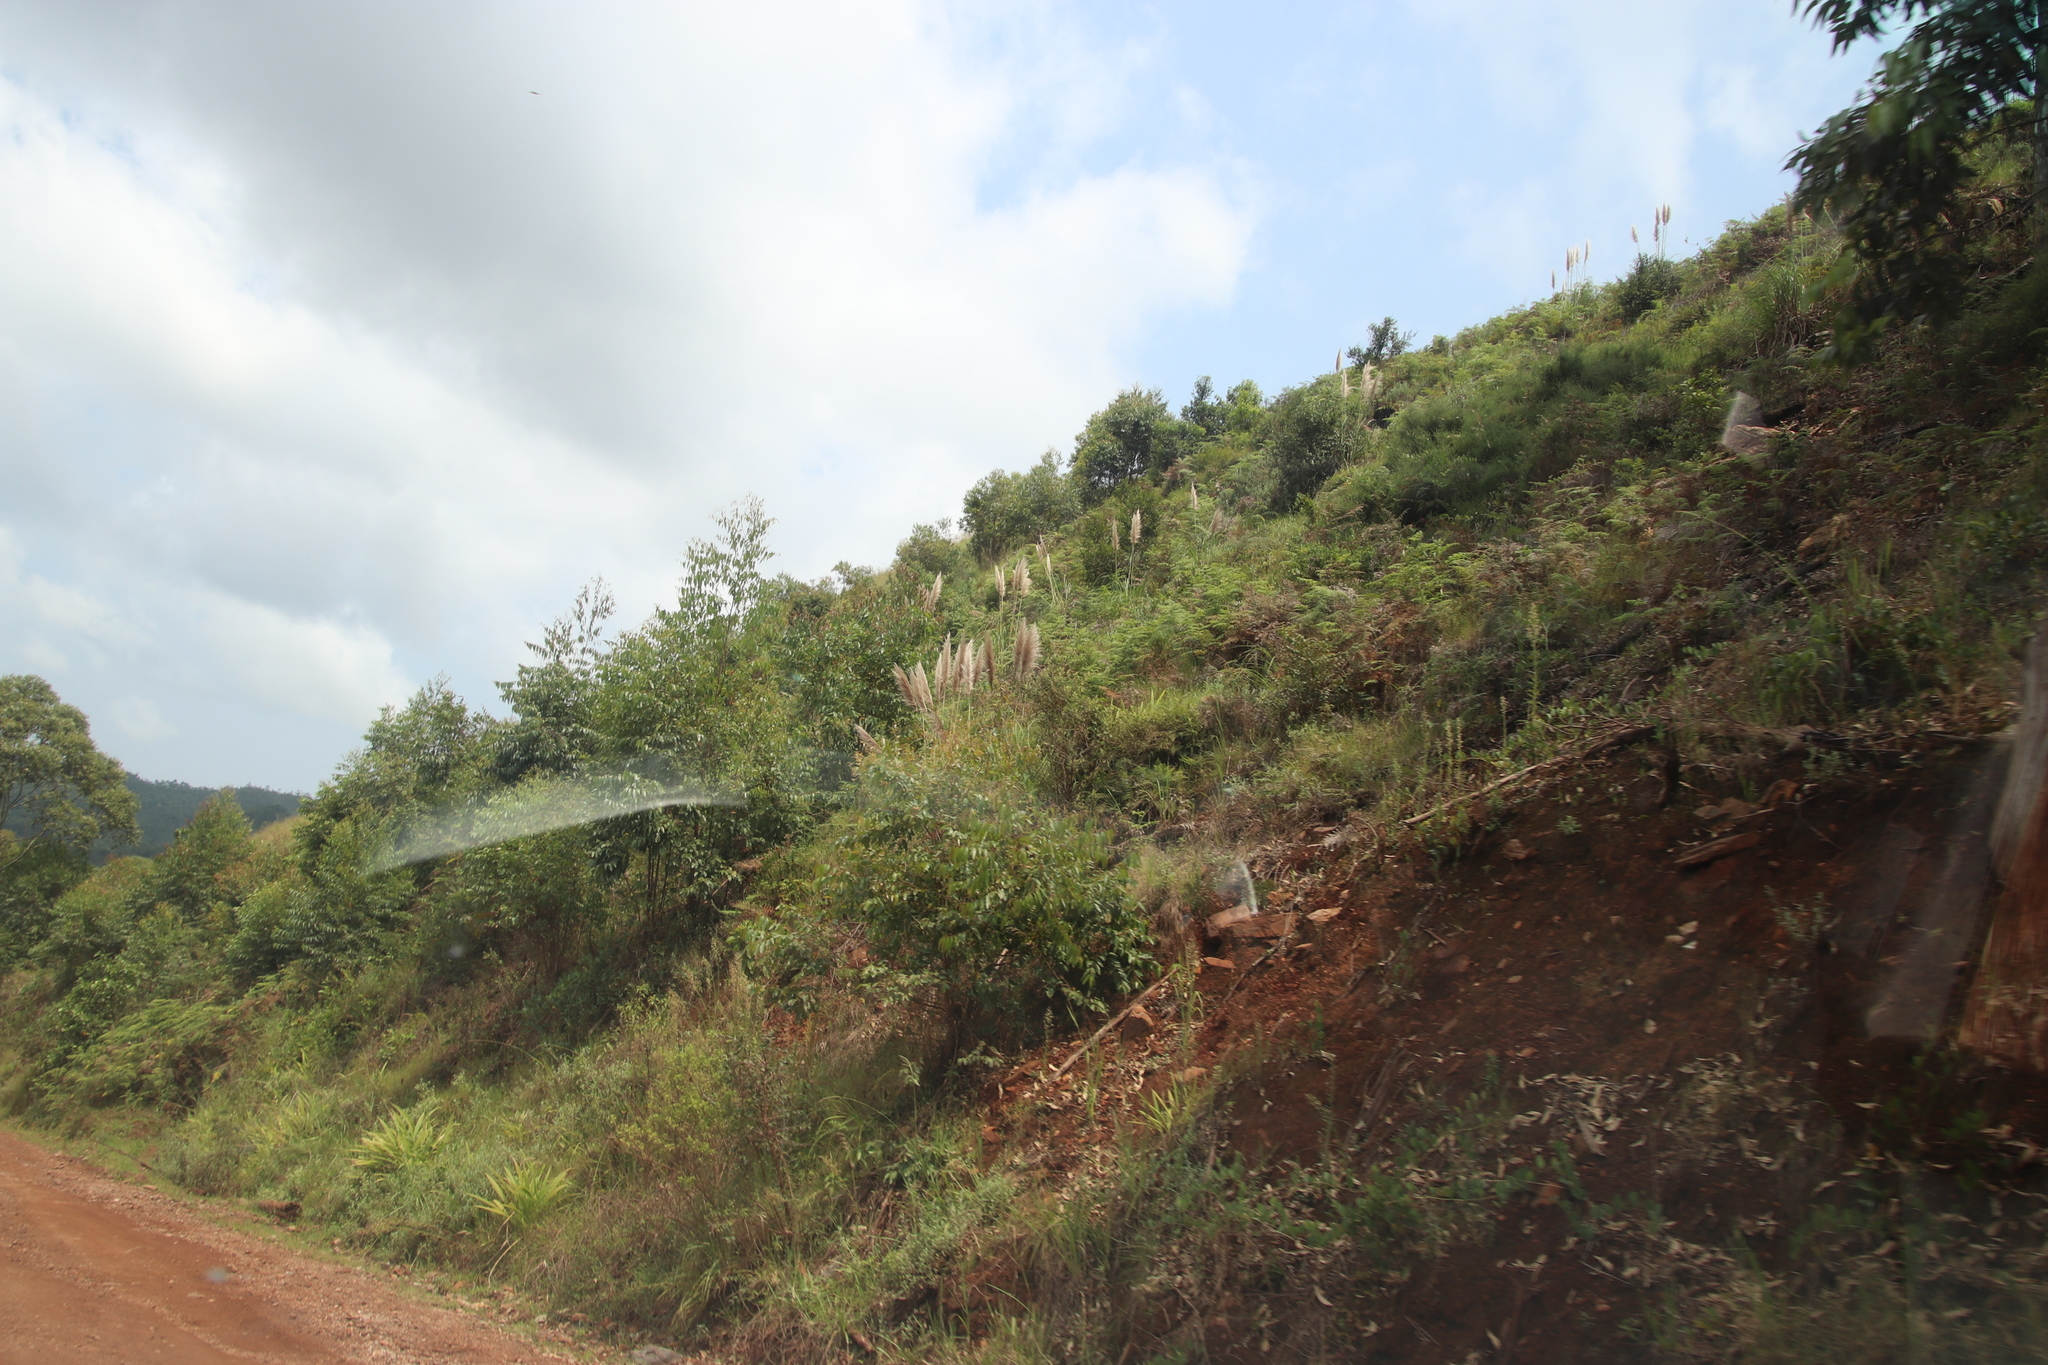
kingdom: Plantae
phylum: Tracheophyta
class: Liliopsida
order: Poales
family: Poaceae
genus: Cortaderia
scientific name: Cortaderia selloana
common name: Uruguayan pampas grass
